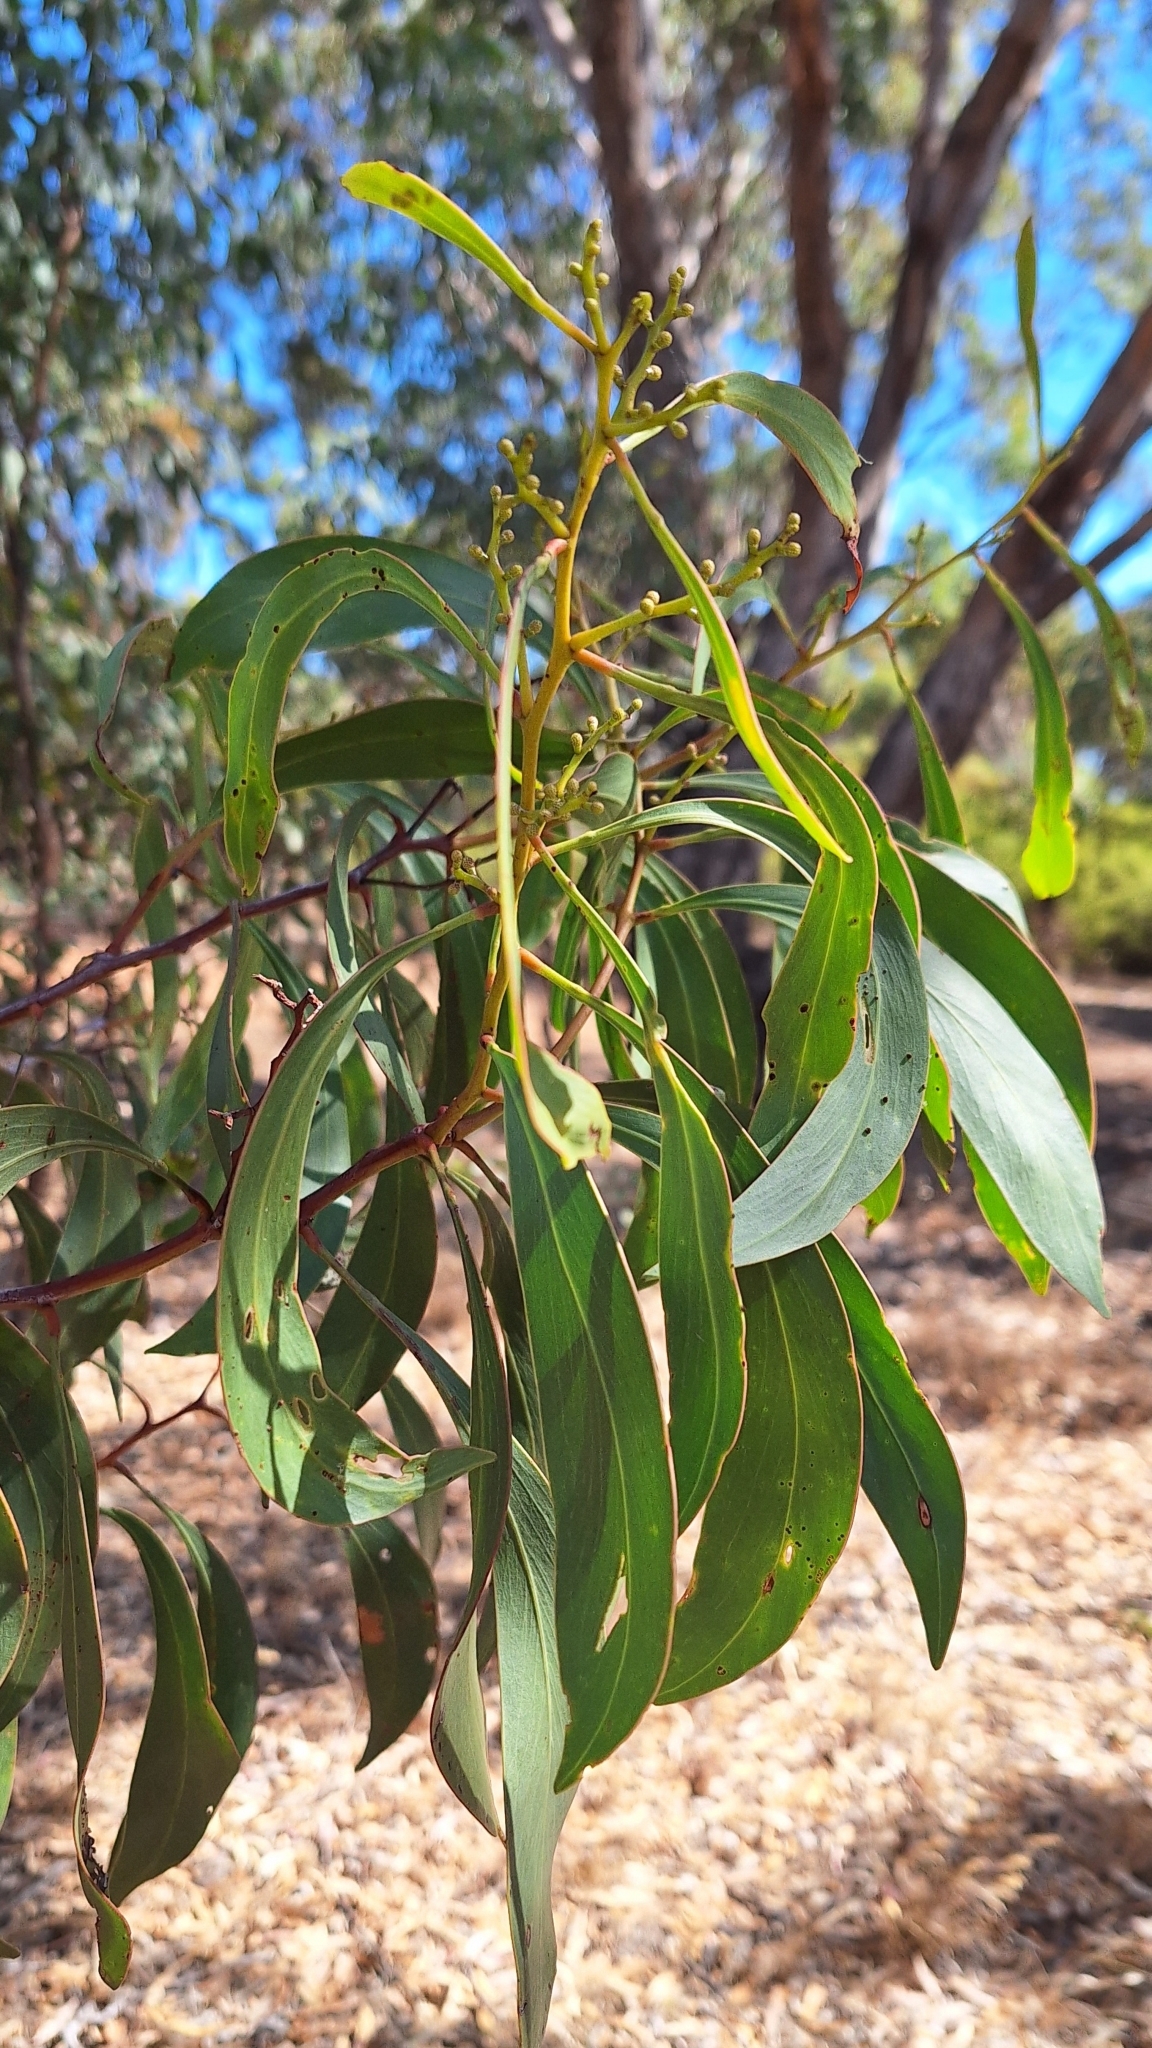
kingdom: Plantae
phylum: Tracheophyta
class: Magnoliopsida
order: Fabales
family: Fabaceae
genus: Acacia
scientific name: Acacia pycnantha
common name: Golden wattle
